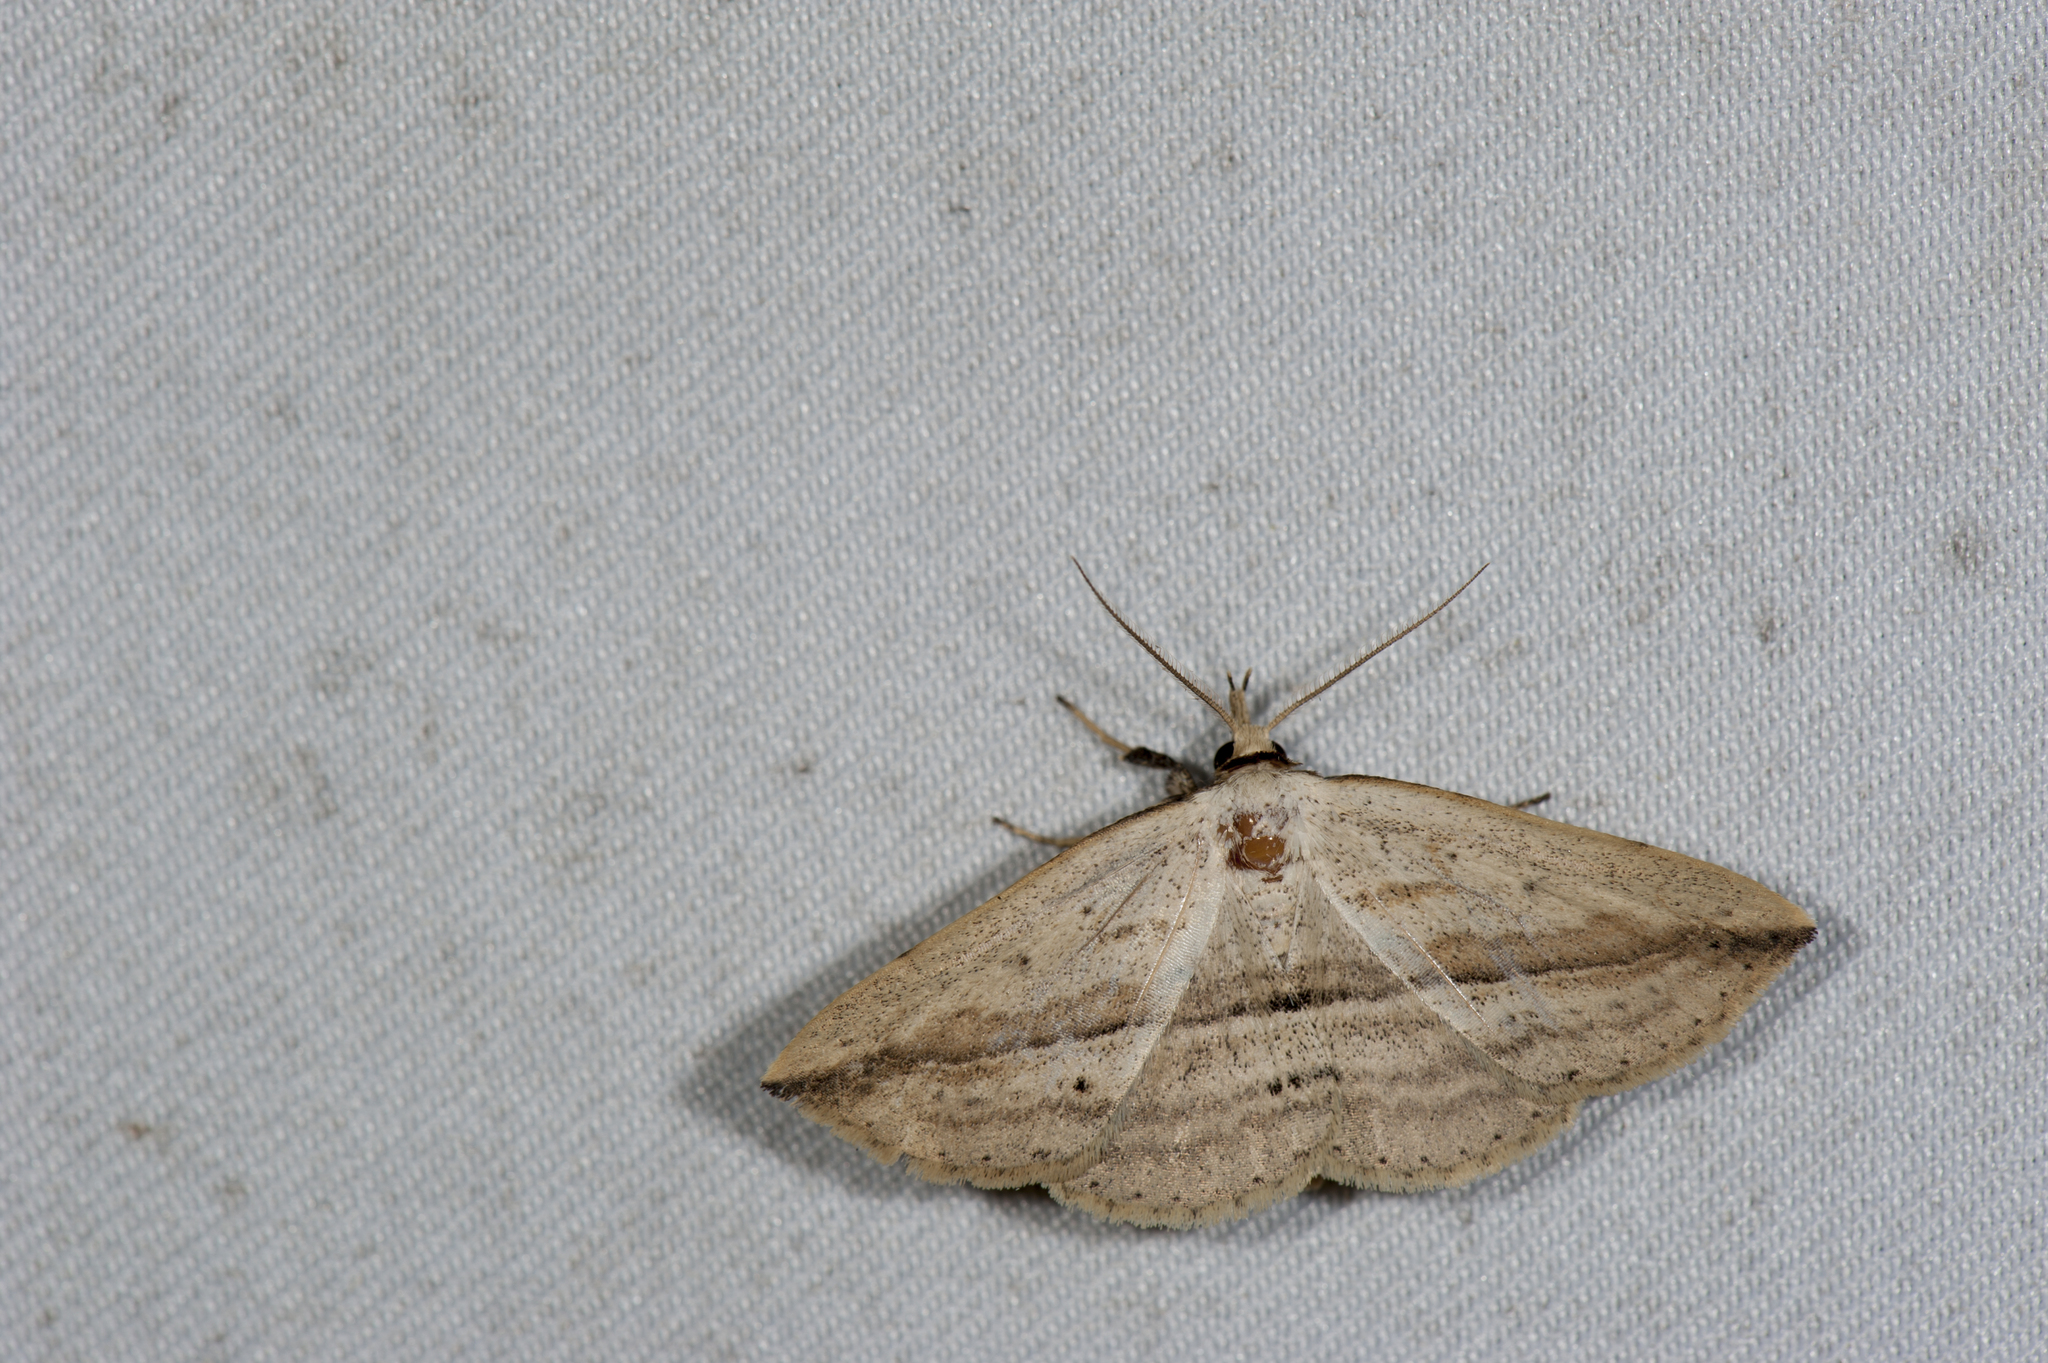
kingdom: Animalia
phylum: Arthropoda
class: Insecta
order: Lepidoptera
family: Erebidae
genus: Carsina
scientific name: Carsina kanshireiensis
